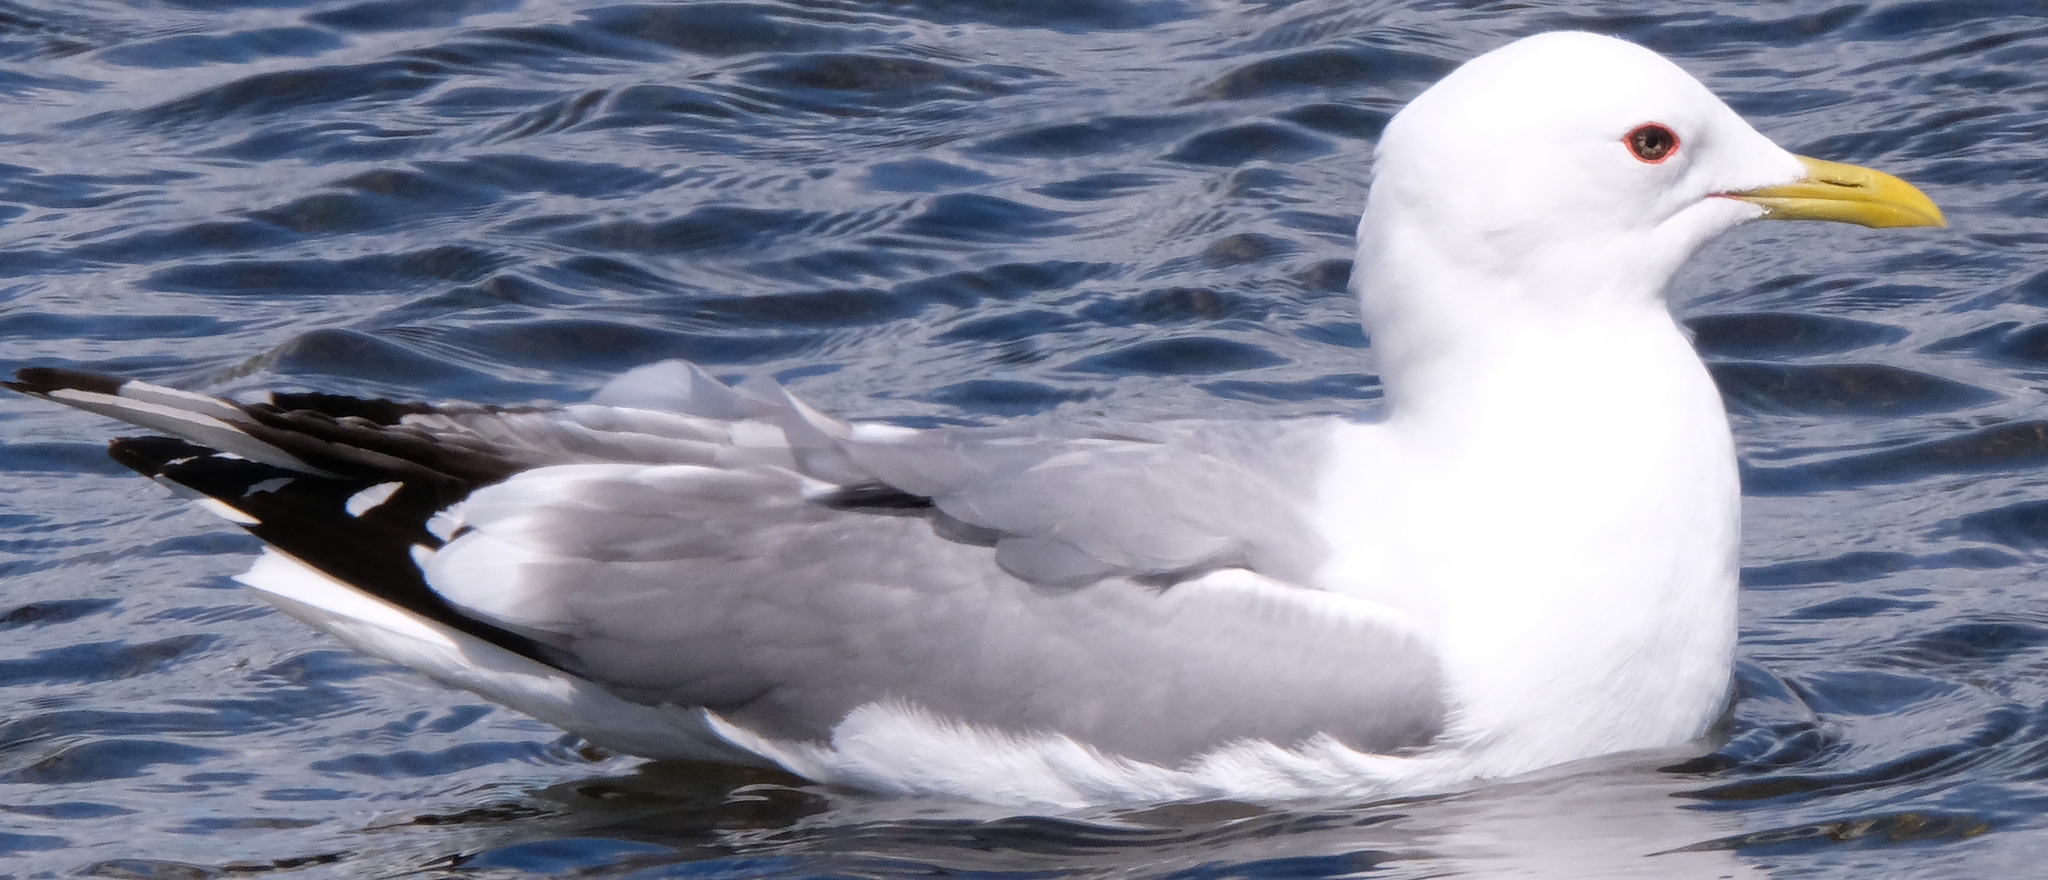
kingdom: Animalia
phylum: Chordata
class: Aves
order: Charadriiformes
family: Laridae
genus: Larus
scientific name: Larus brachyrhynchus
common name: Short-billed gull
